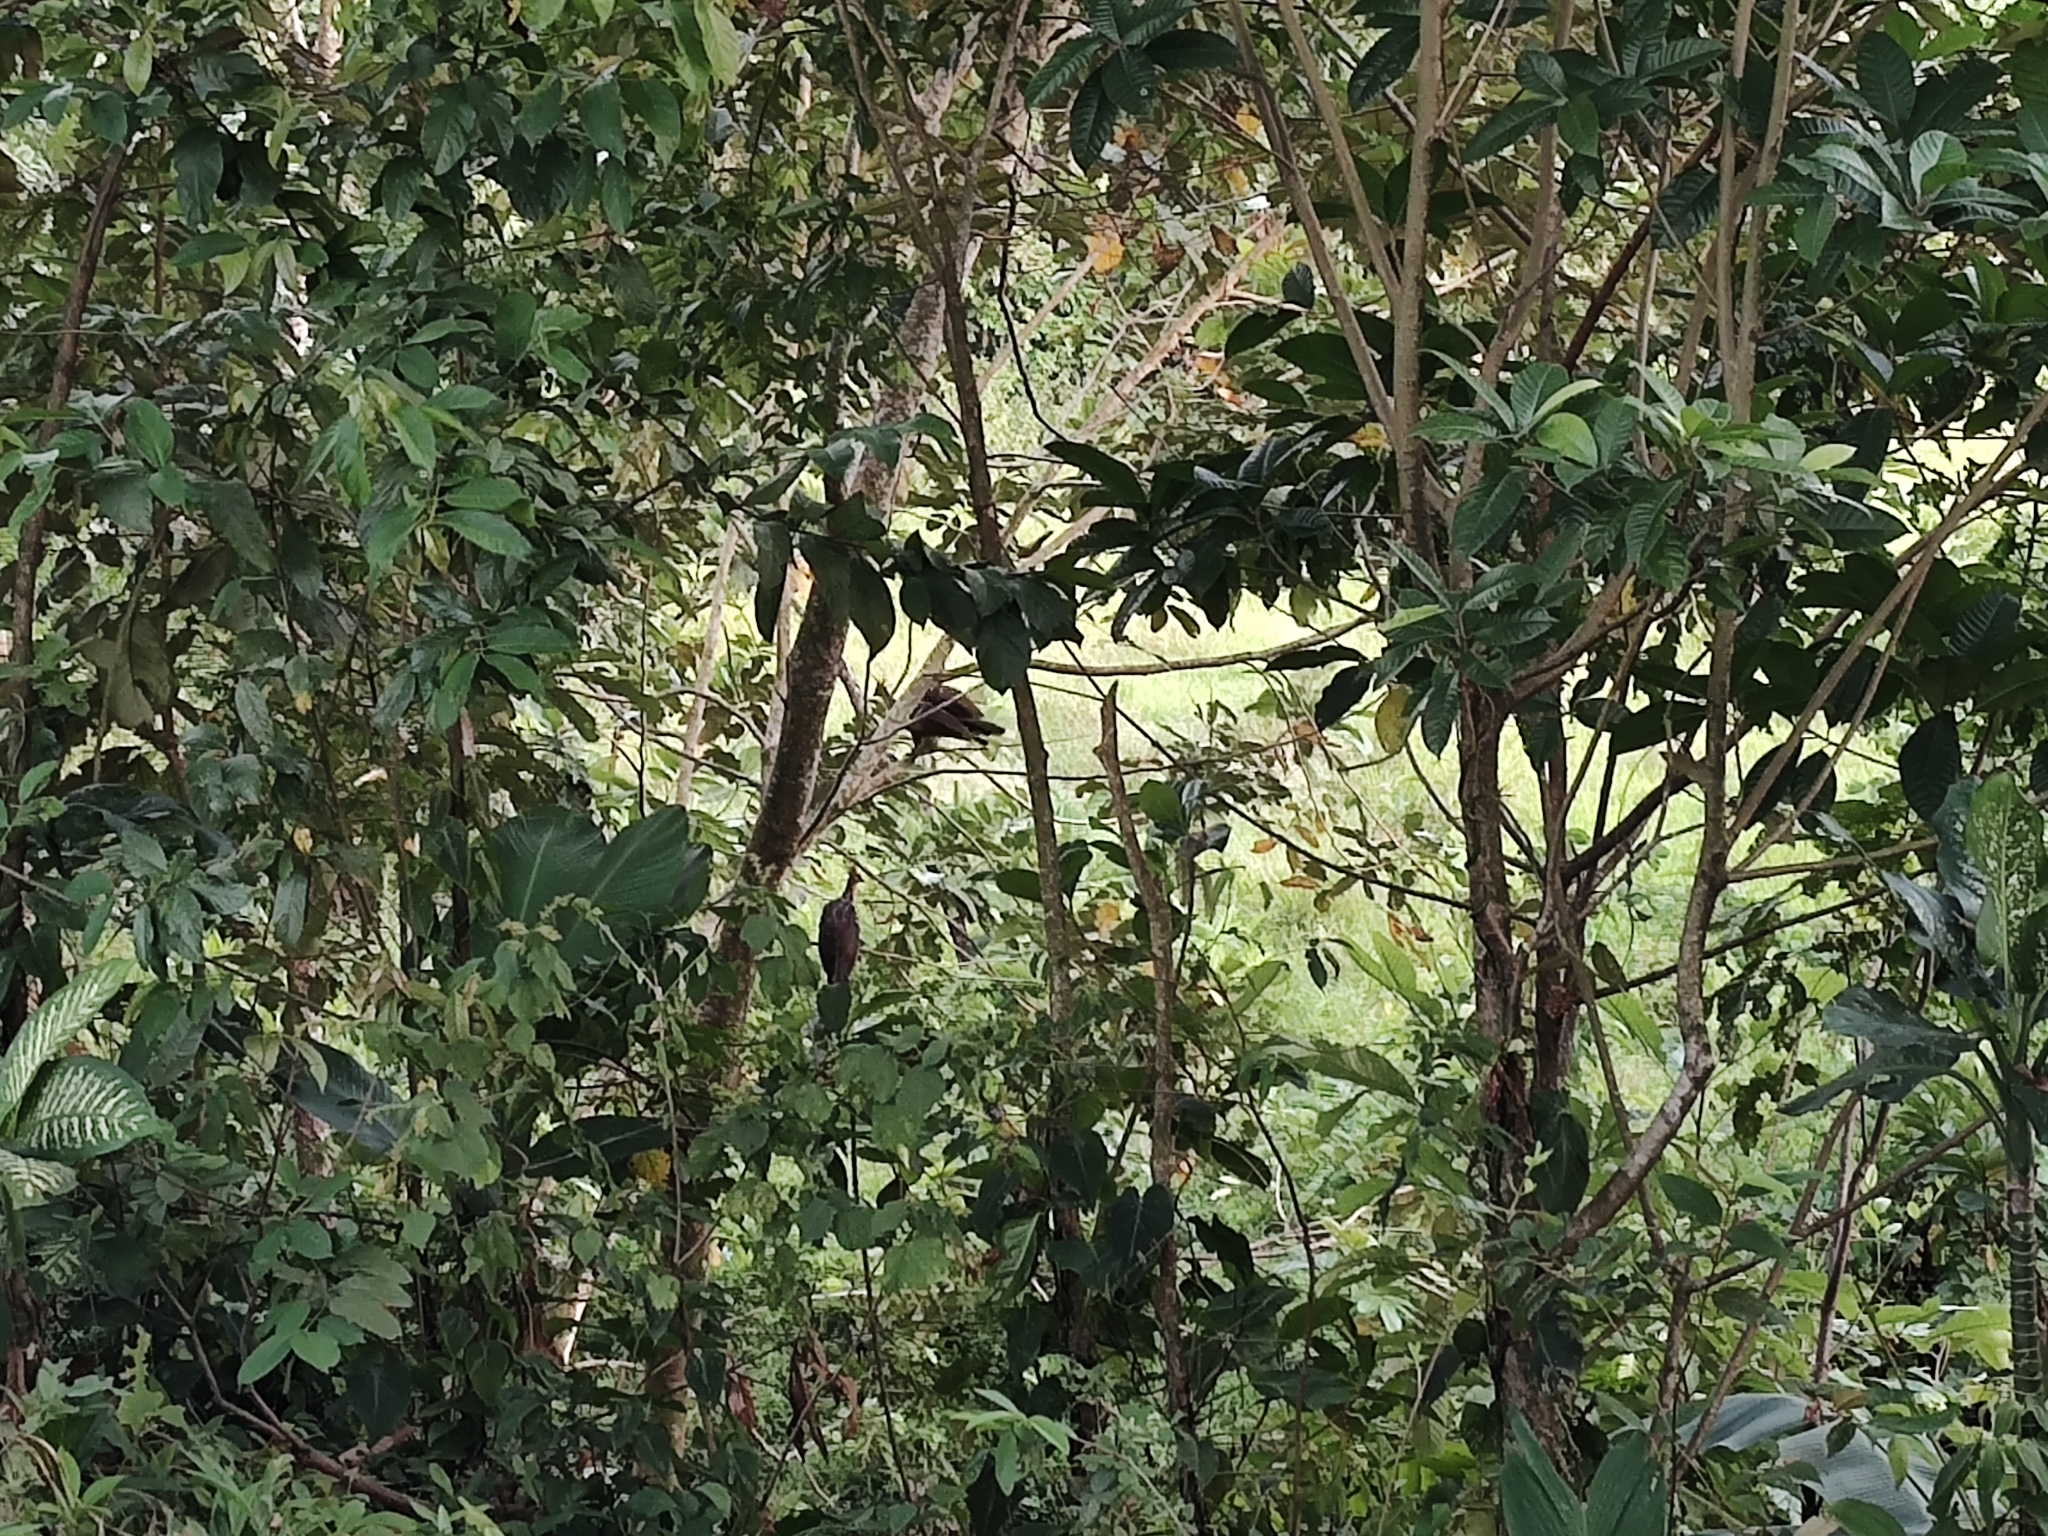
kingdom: Animalia
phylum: Chordata
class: Aves
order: Opisthocomiformes
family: Opisthocomidae
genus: Opisthocomus
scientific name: Opisthocomus hoazin
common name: Hoatzin
